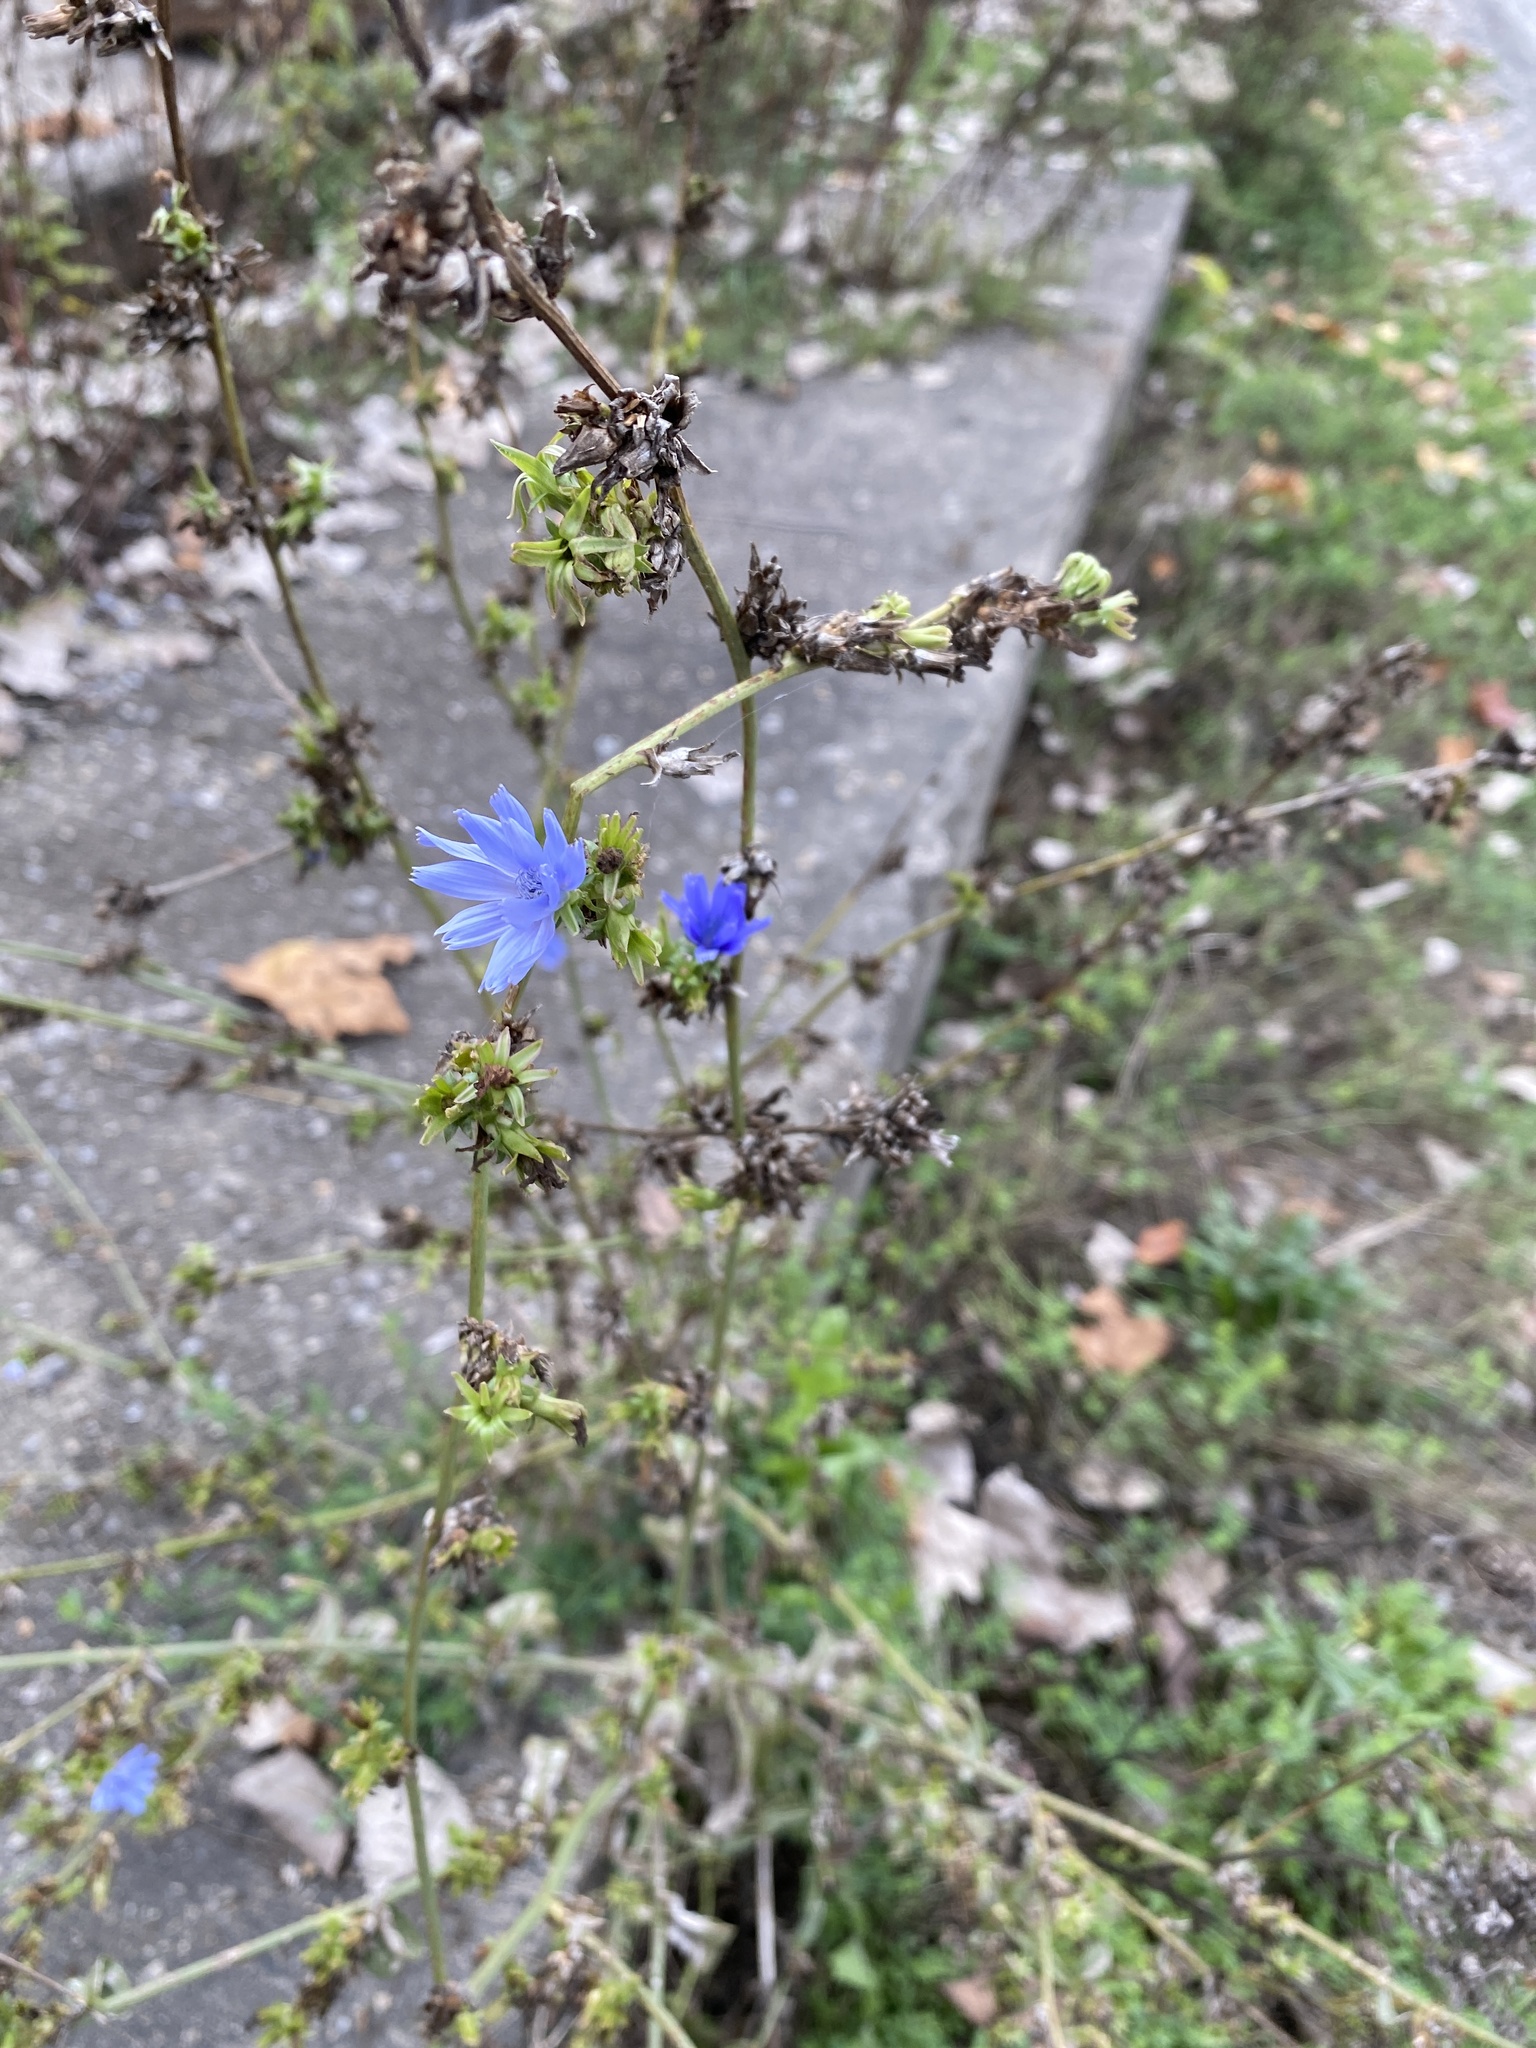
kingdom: Plantae
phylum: Tracheophyta
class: Magnoliopsida
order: Asterales
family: Asteraceae
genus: Cichorium
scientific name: Cichorium intybus
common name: Chicory
